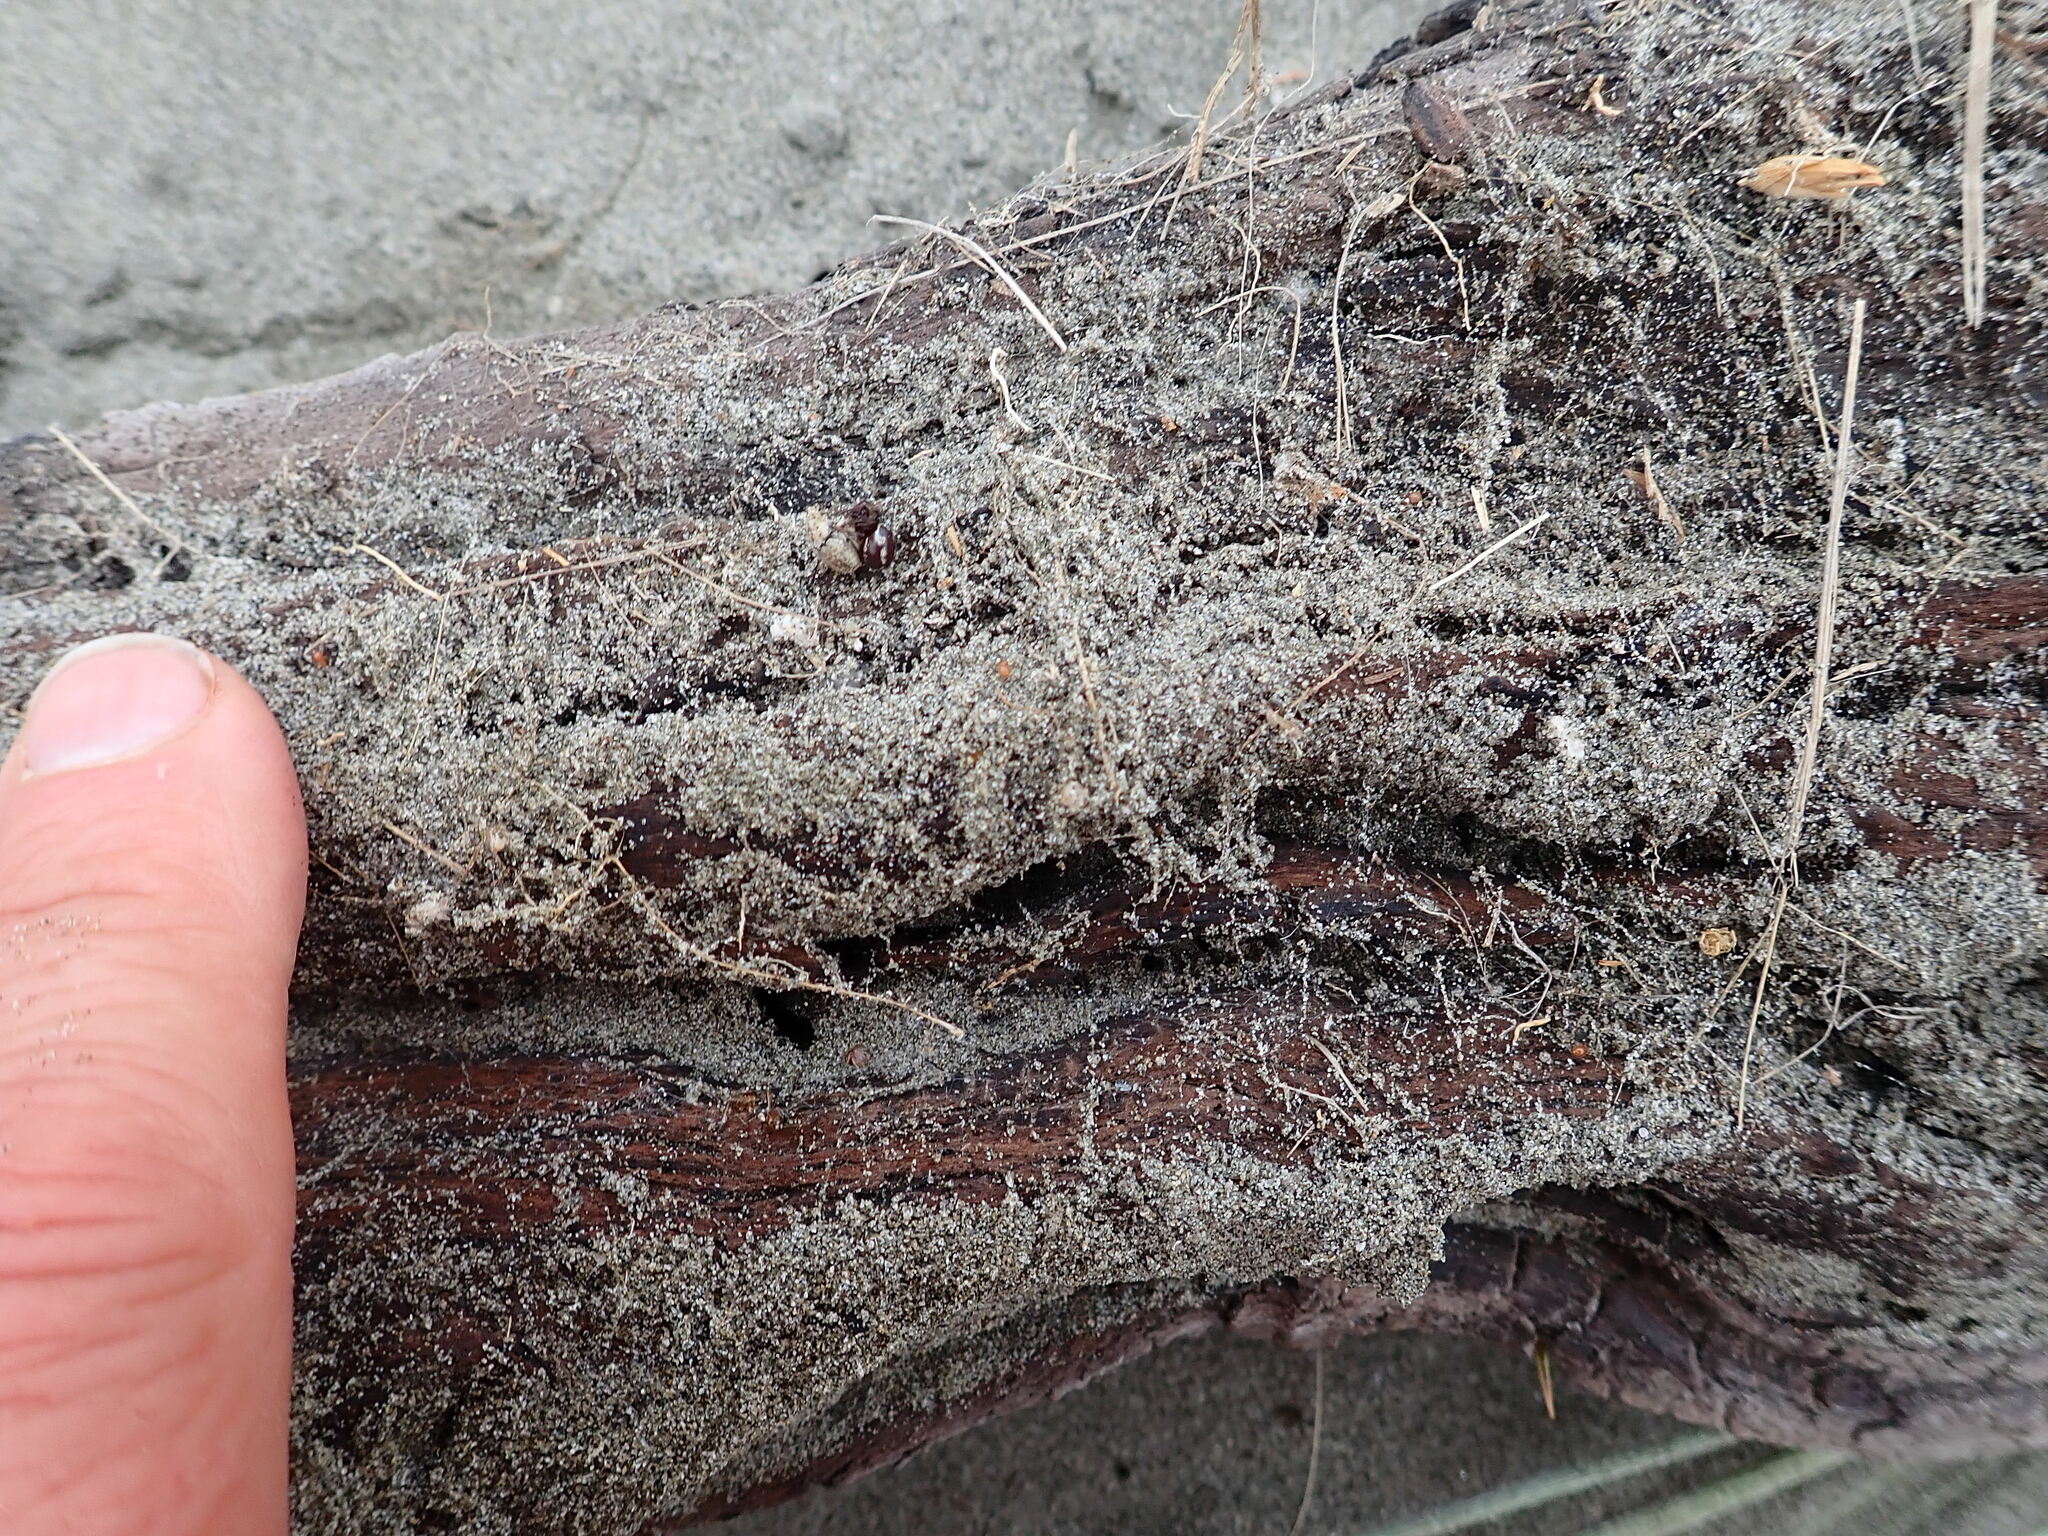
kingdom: Animalia
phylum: Arthropoda
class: Arachnida
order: Araneae
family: Theridiidae
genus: Steatoda
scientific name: Steatoda lepida
